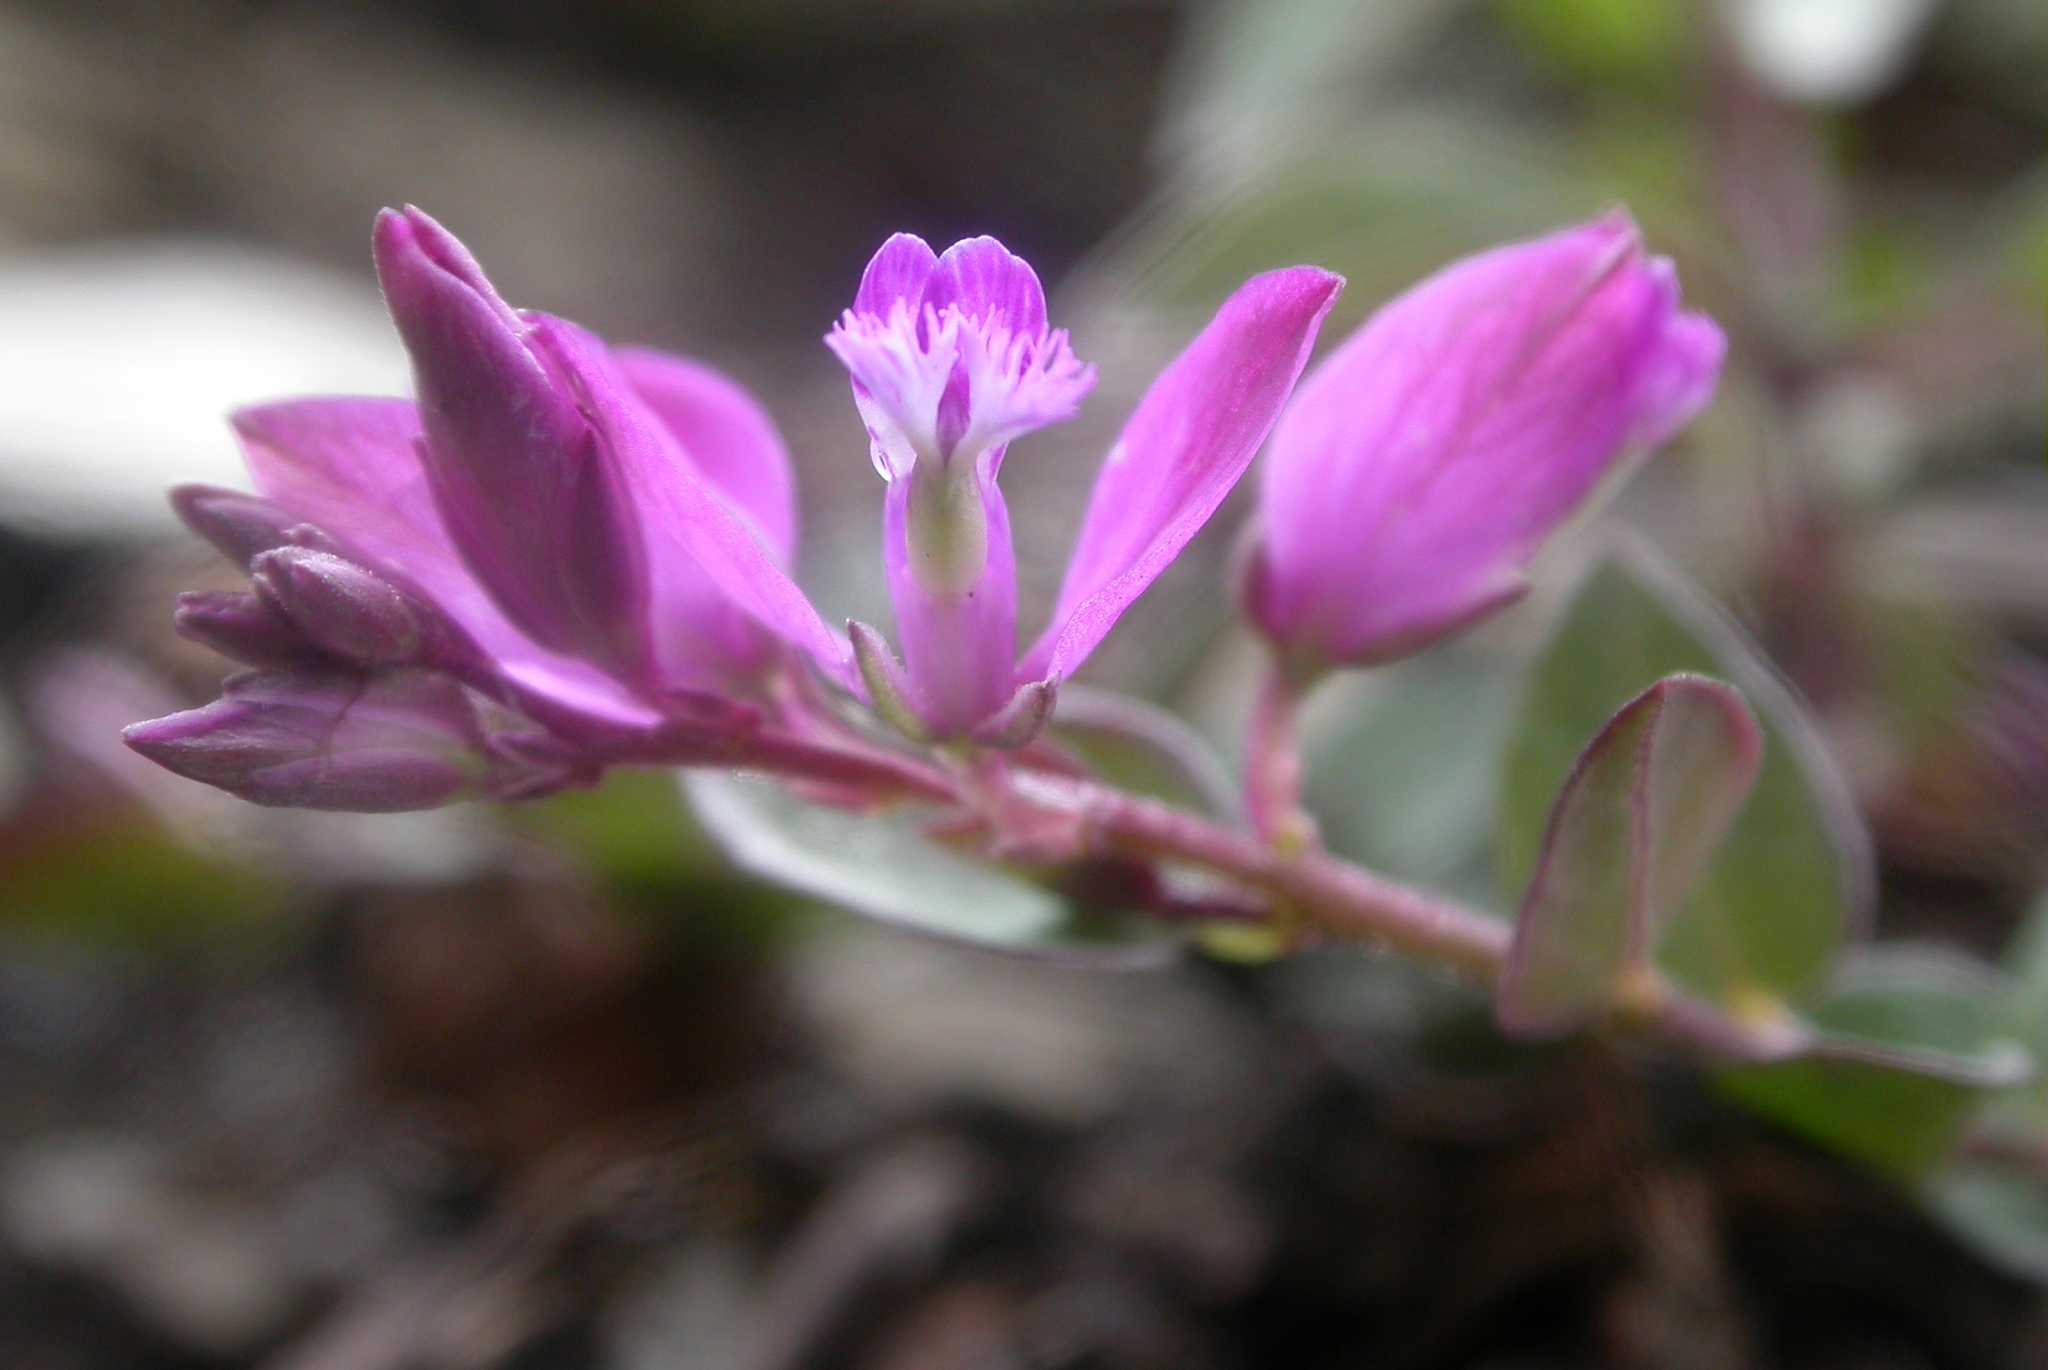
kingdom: Plantae
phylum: Tracheophyta
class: Magnoliopsida
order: Fabales
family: Polygalaceae
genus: Polygala
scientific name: Polygala japonica
